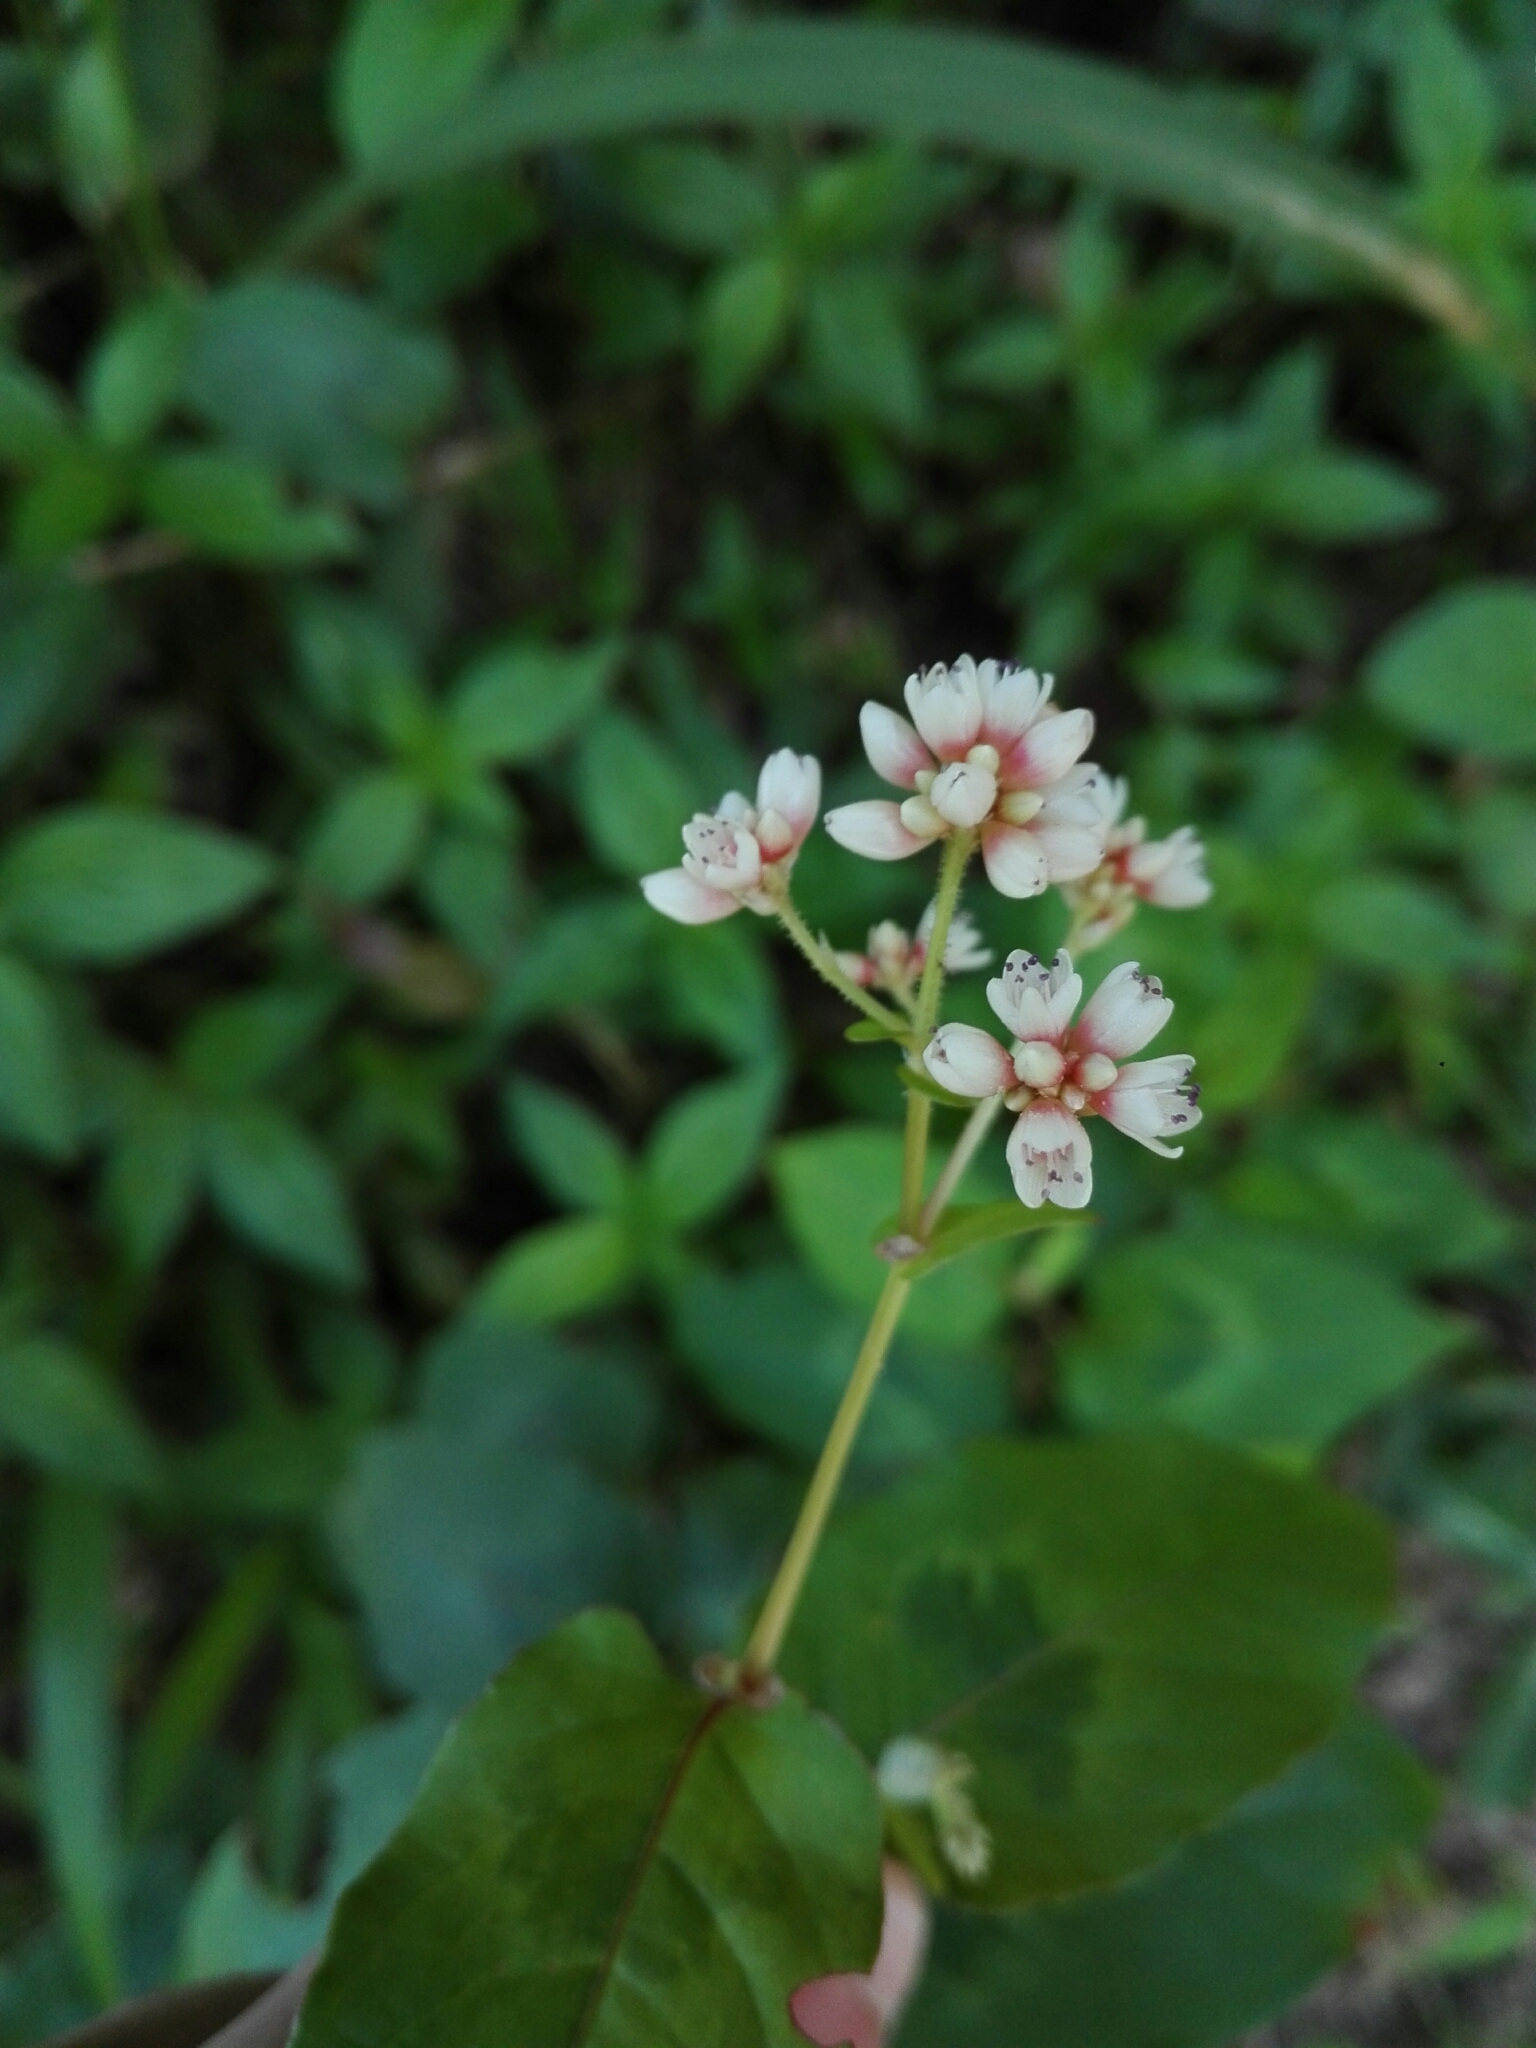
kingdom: Plantae
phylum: Tracheophyta
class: Magnoliopsida
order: Caryophyllales
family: Polygonaceae
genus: Fagopyrum
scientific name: Fagopyrum cymosum
